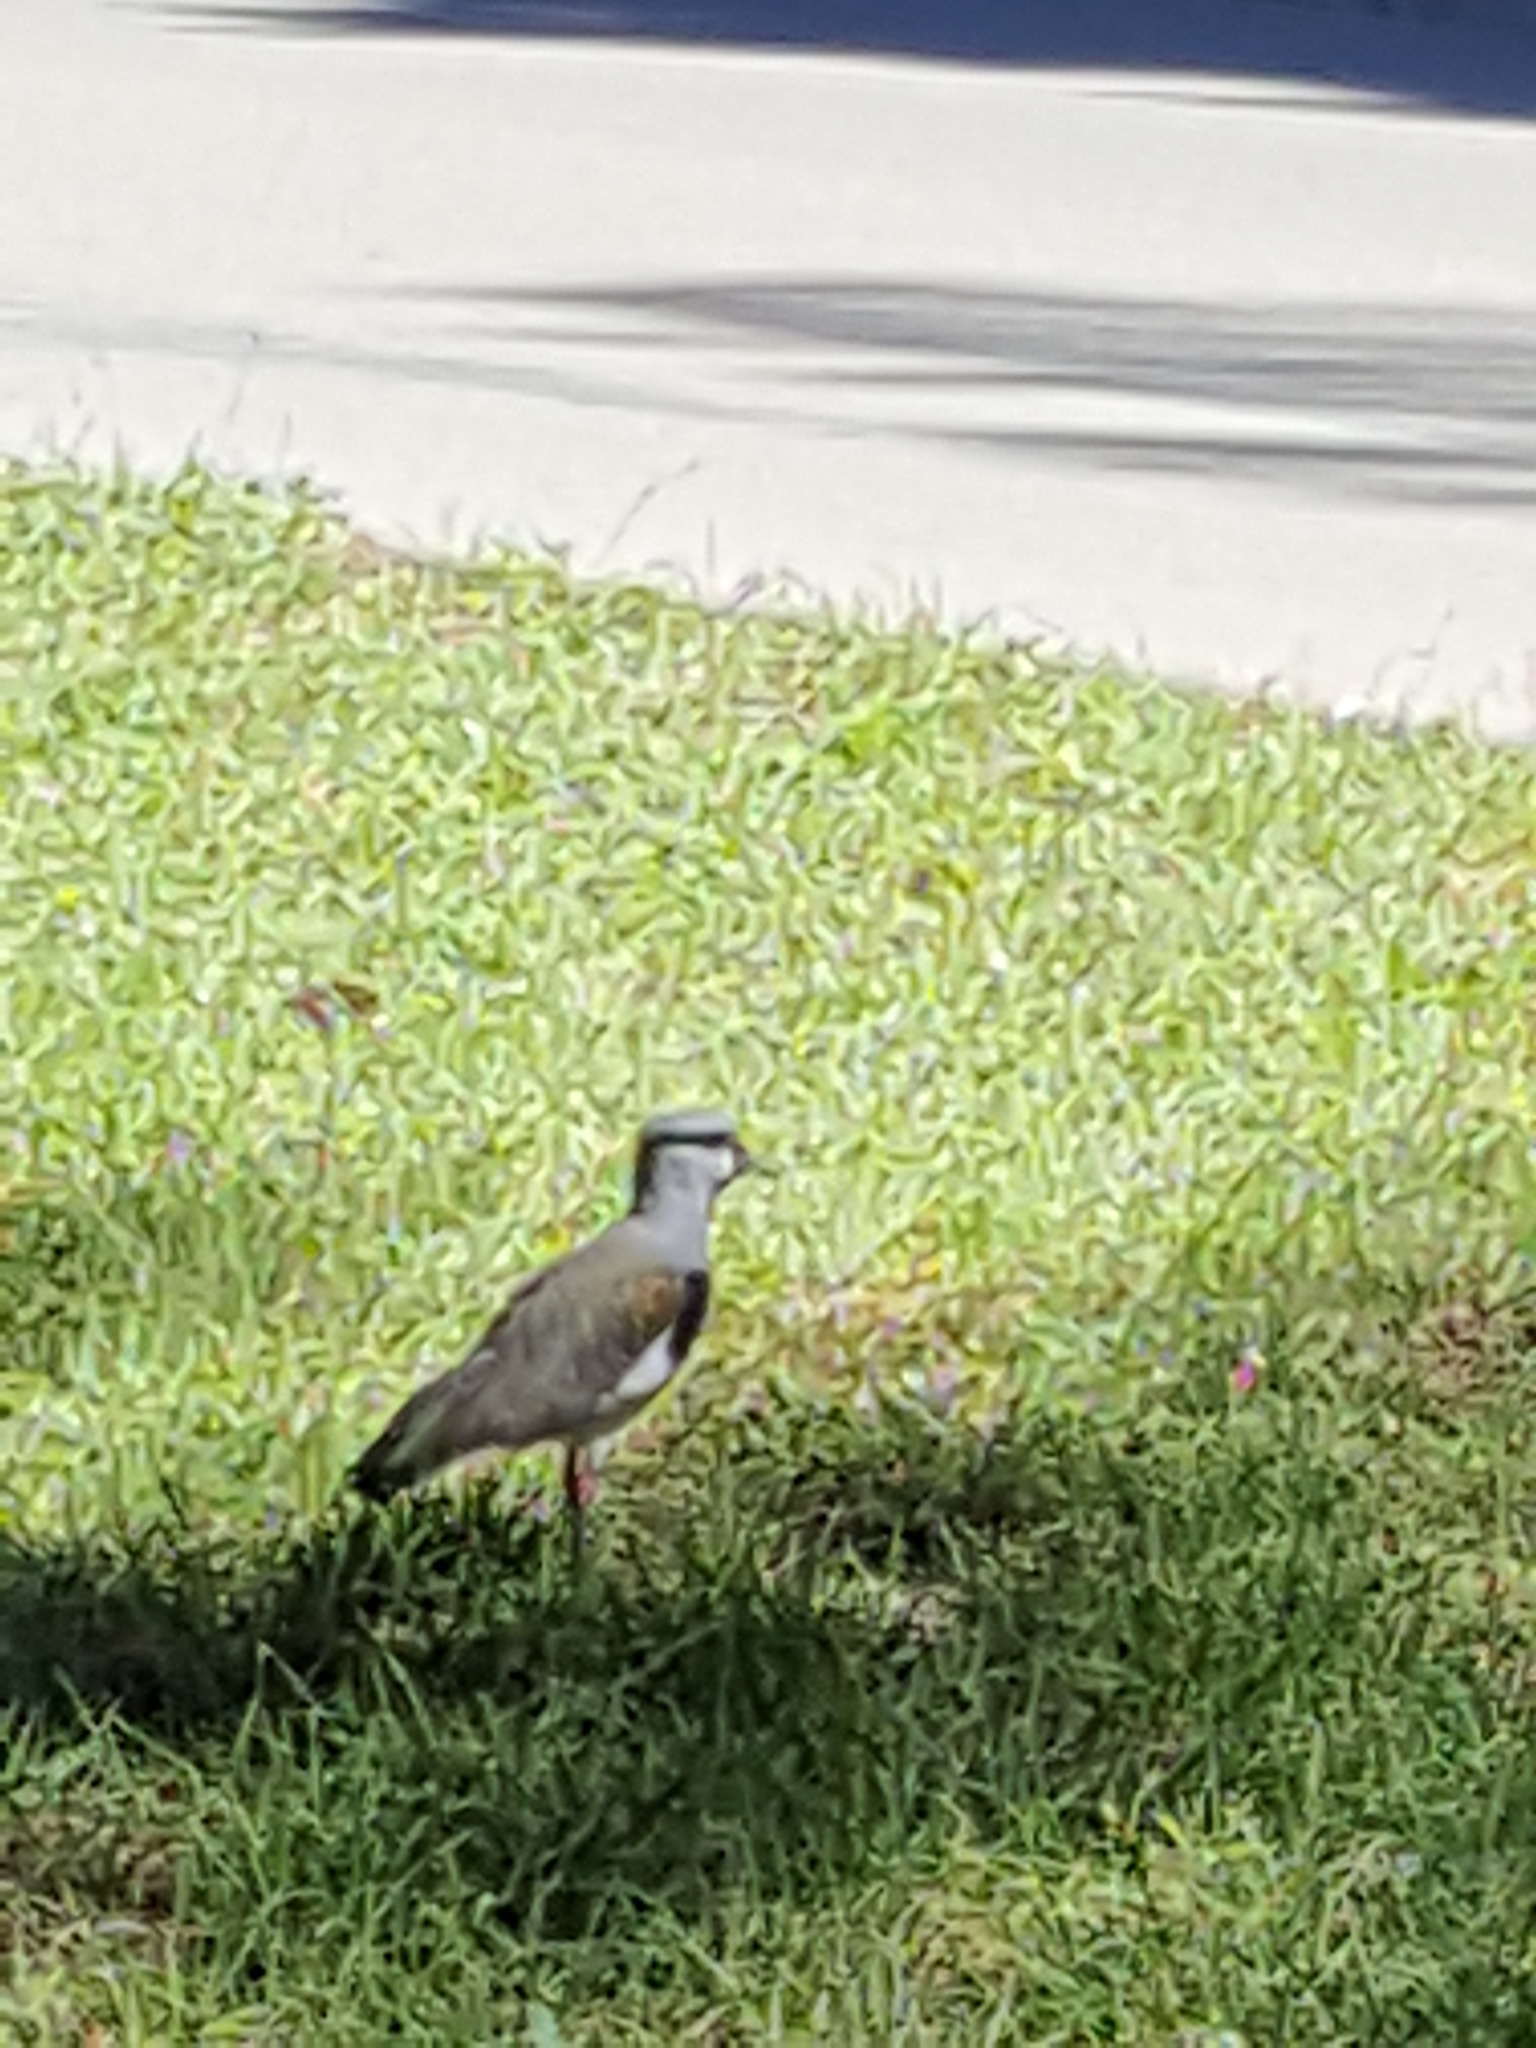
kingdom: Animalia
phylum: Chordata
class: Aves
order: Charadriiformes
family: Charadriidae
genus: Vanellus
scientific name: Vanellus chilensis
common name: Southern lapwing
